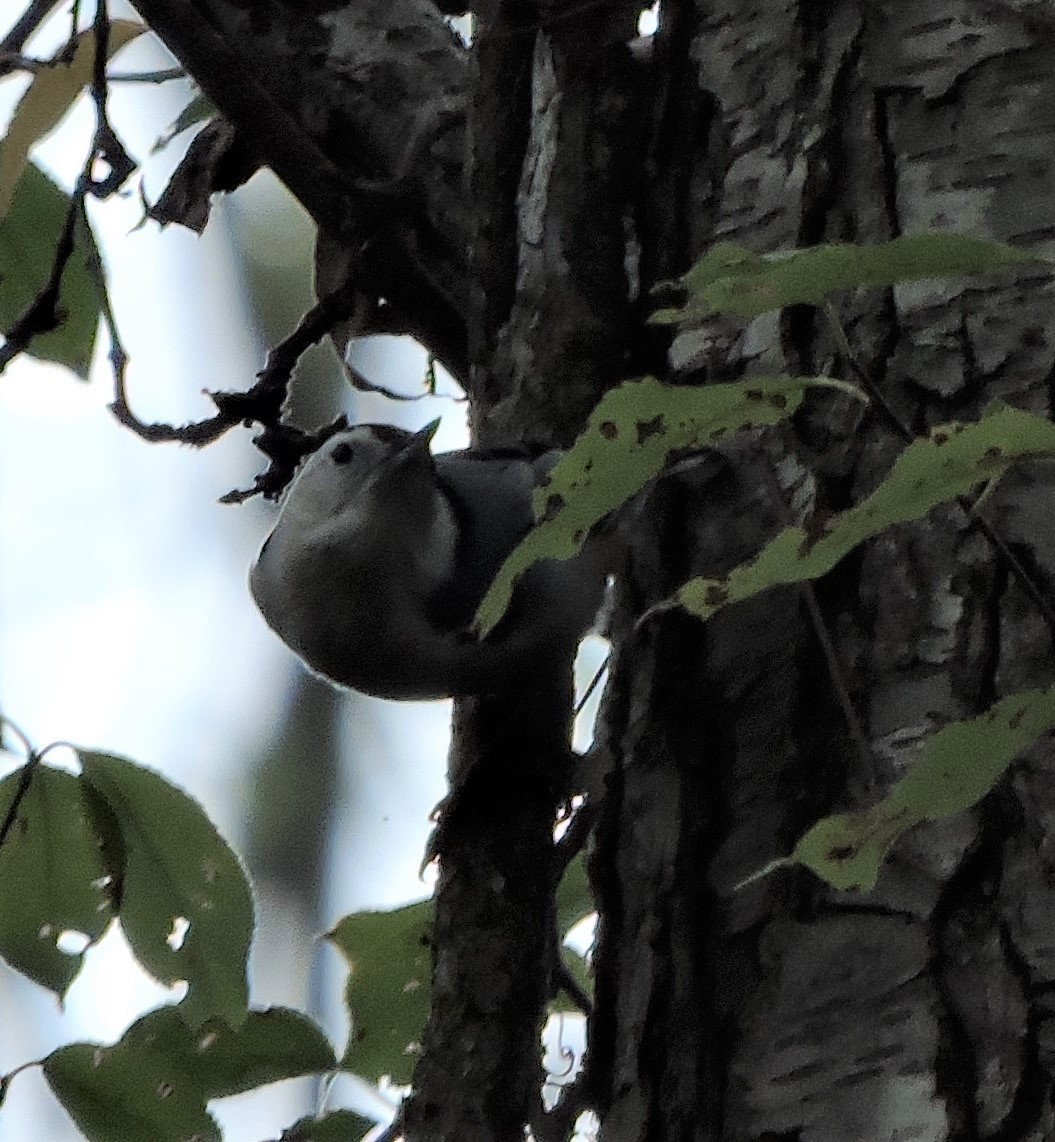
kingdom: Animalia
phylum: Chordata
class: Aves
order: Passeriformes
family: Sittidae
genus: Sitta
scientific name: Sitta carolinensis
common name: White-breasted nuthatch
